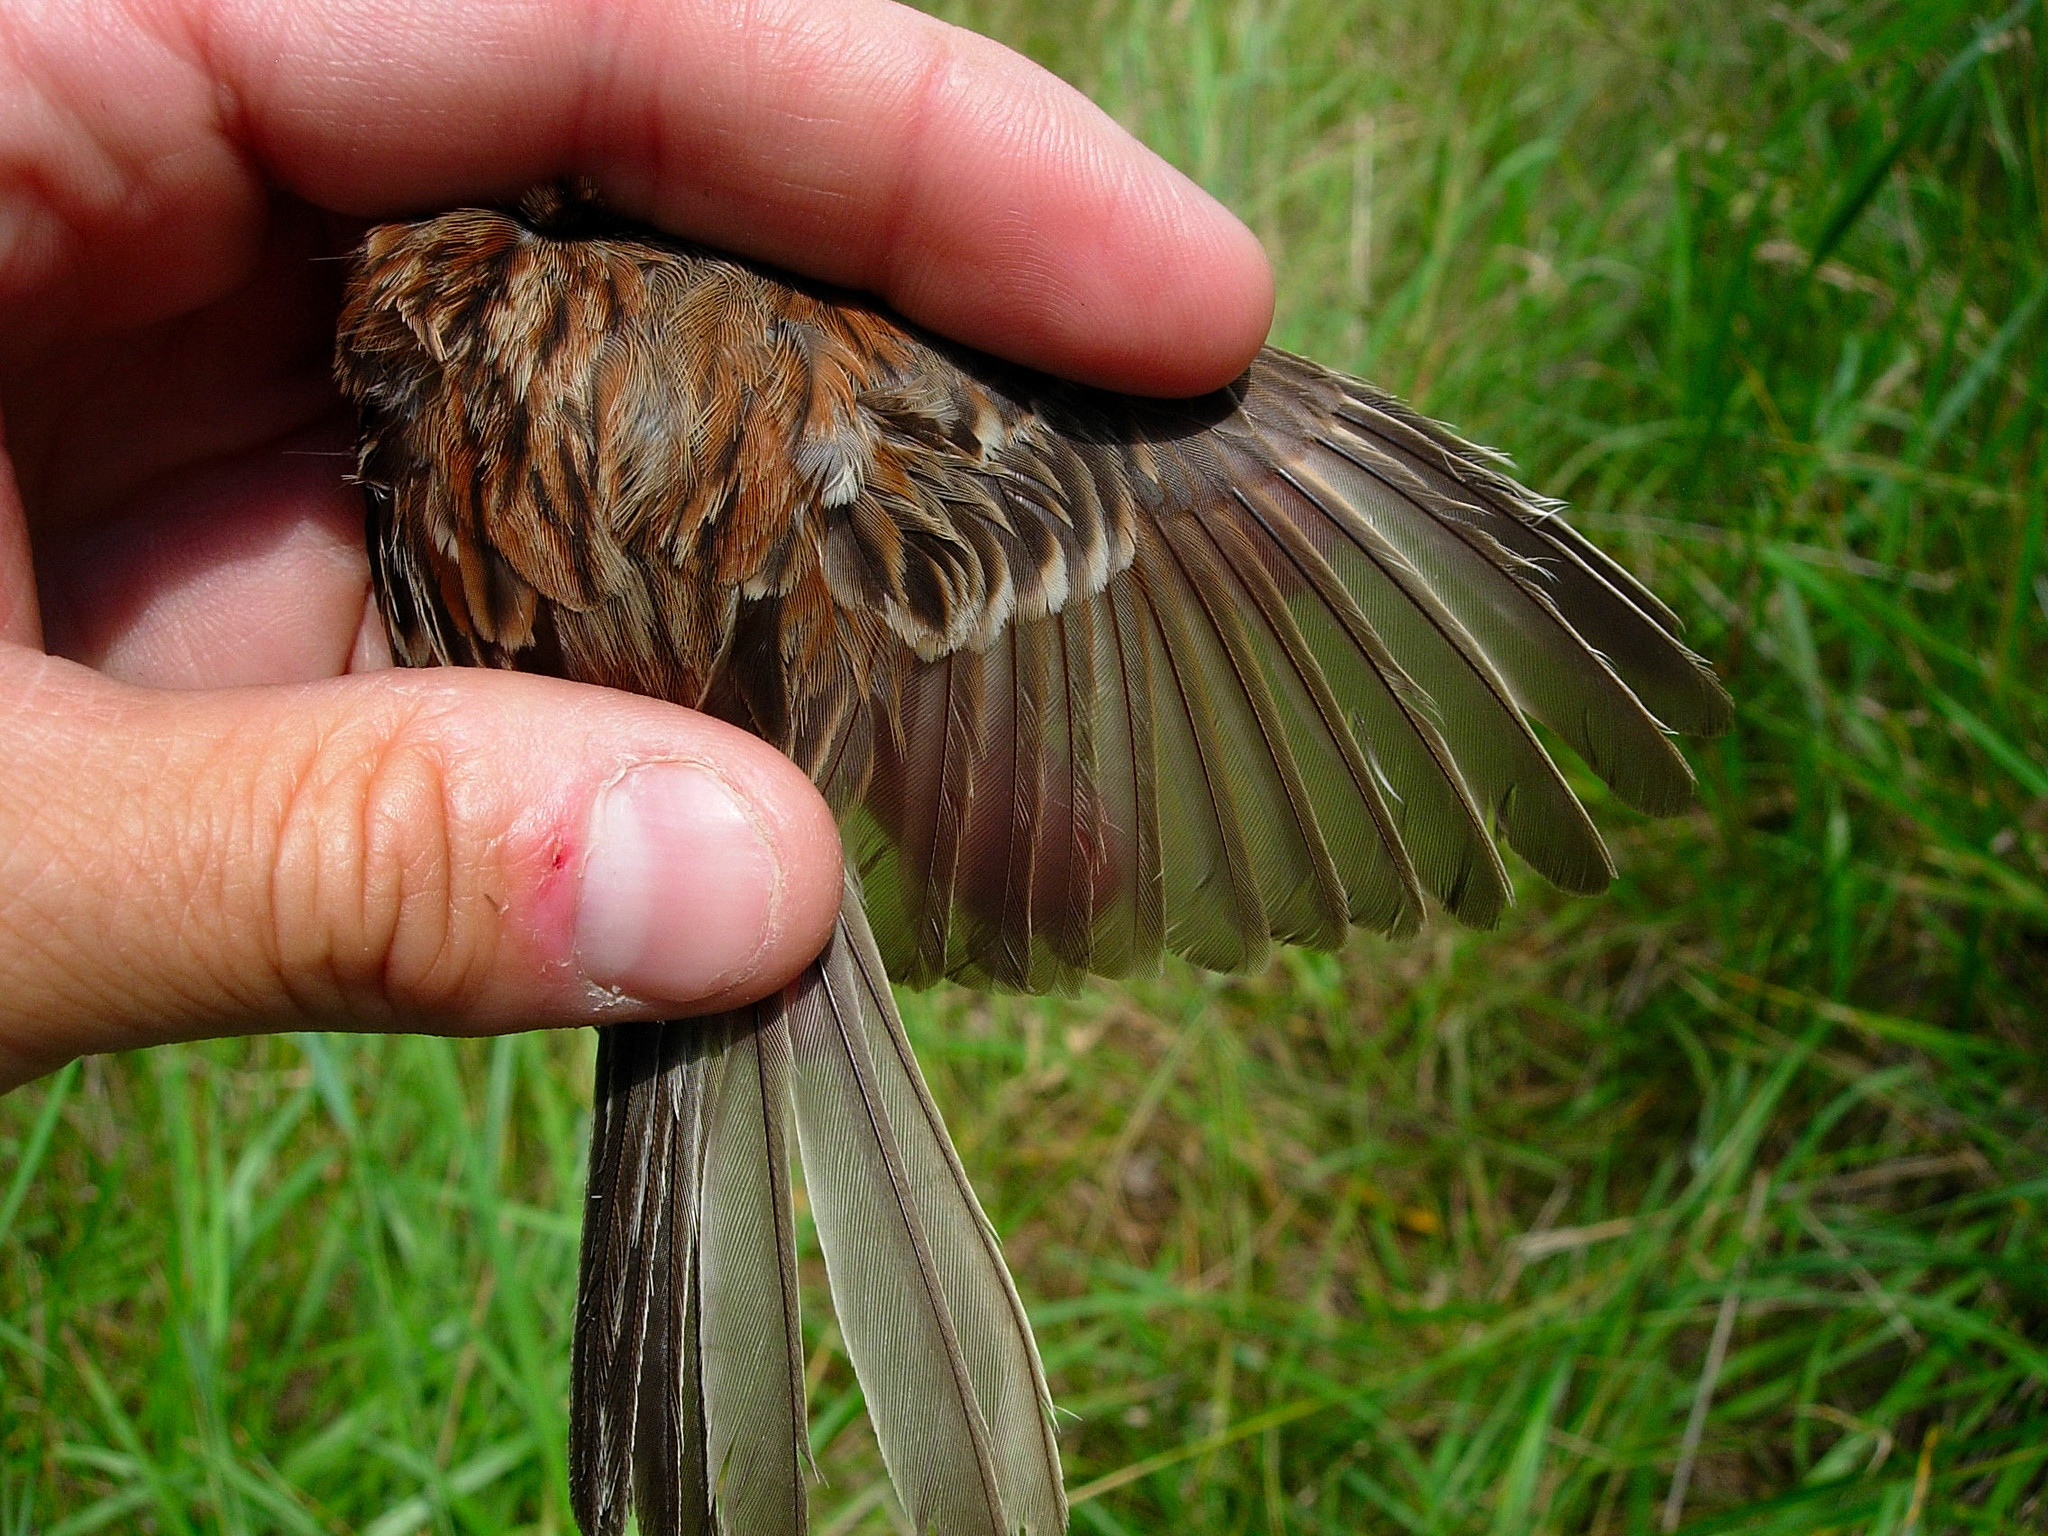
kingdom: Animalia
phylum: Chordata
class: Aves
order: Passeriformes
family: Passerellidae
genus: Spizella
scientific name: Spizella pusilla
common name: Field sparrow
